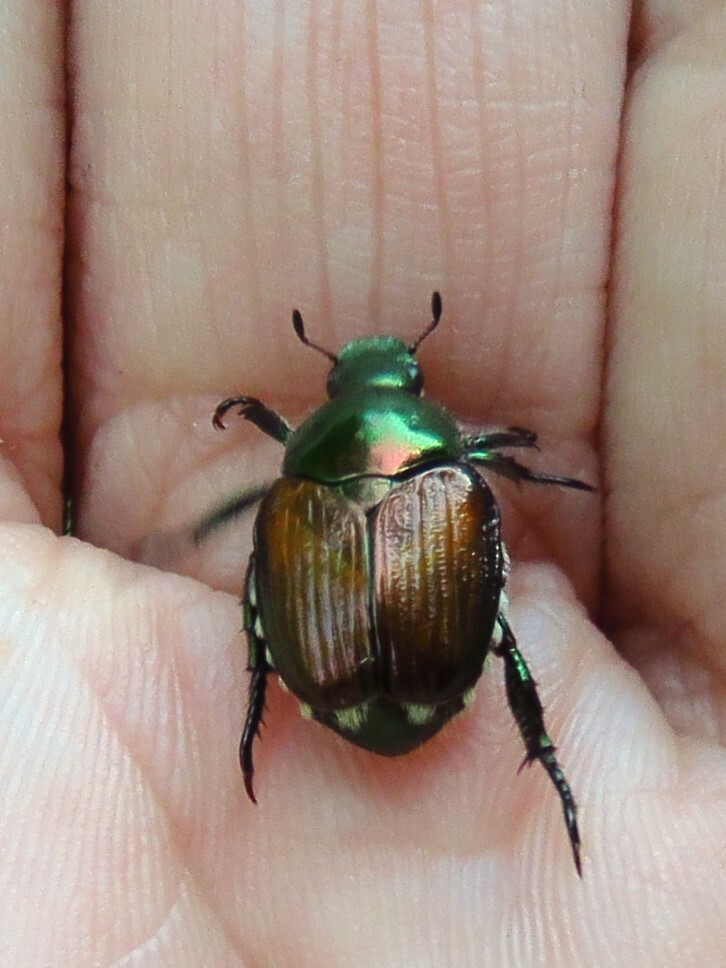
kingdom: Animalia
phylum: Arthropoda
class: Insecta
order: Coleoptera
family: Scarabaeidae
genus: Popillia
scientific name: Popillia japonica
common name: Japanese beetle
